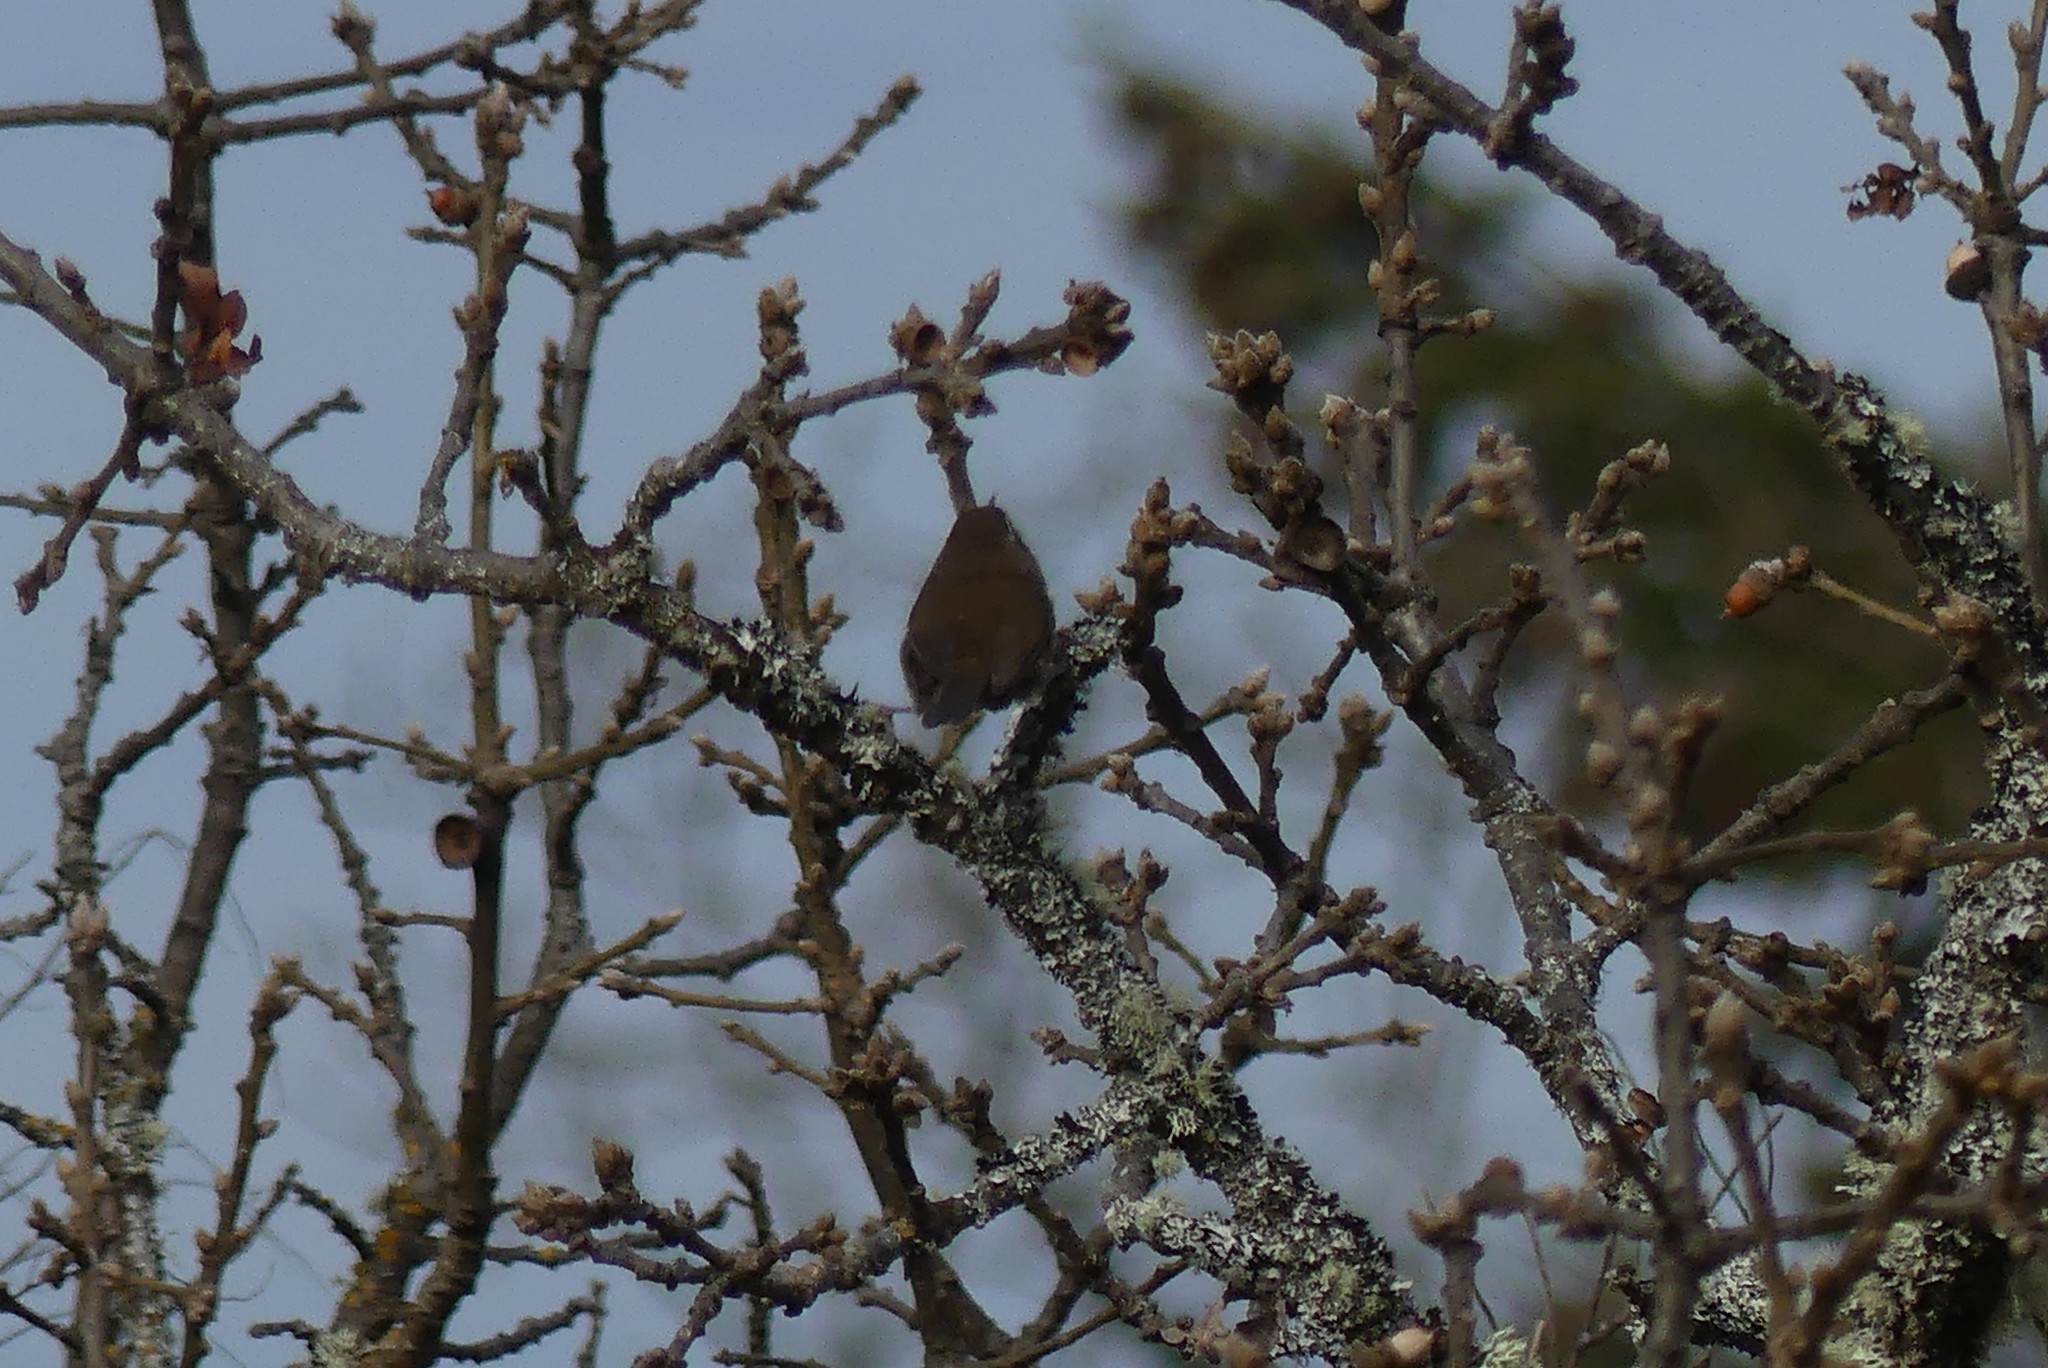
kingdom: Animalia
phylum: Chordata
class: Aves
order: Passeriformes
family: Troglodytidae
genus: Thryomanes
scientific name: Thryomanes bewickii
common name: Bewick's wren
